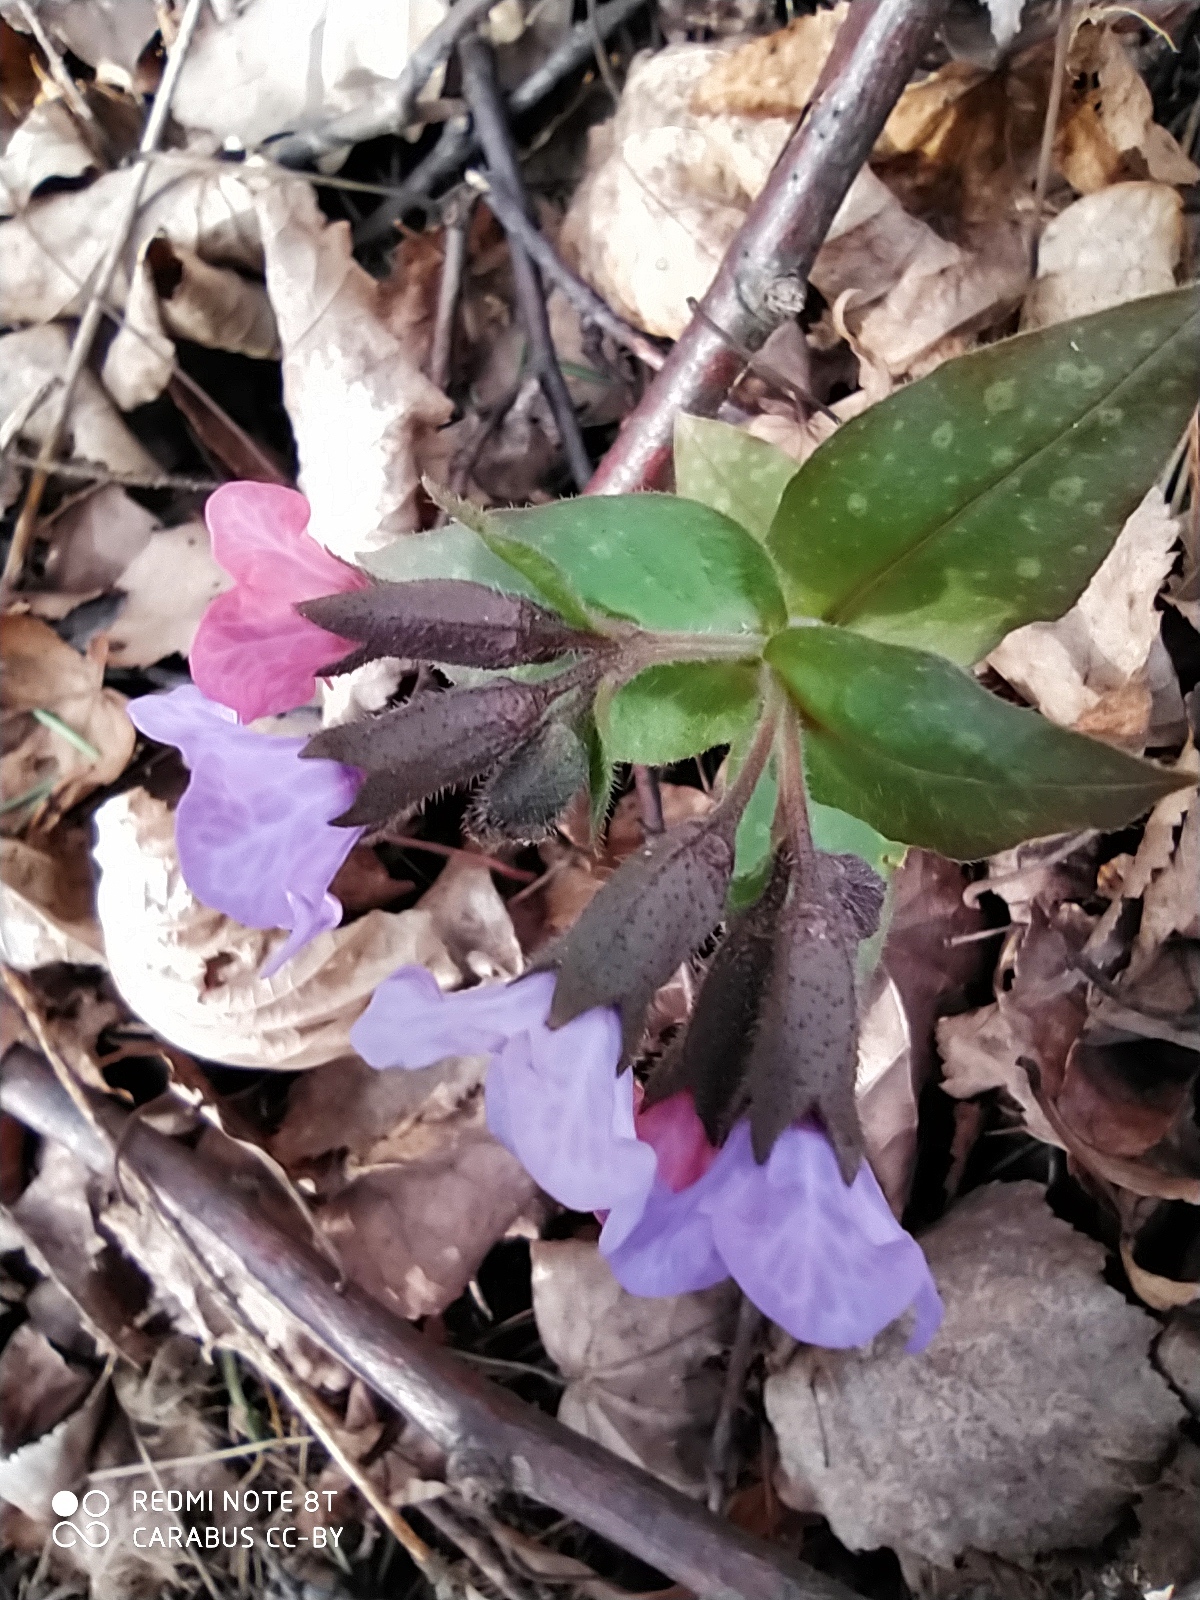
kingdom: Plantae
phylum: Tracheophyta
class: Magnoliopsida
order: Boraginales
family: Boraginaceae
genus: Pulmonaria
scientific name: Pulmonaria obscura
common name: Suffolk lungwort
